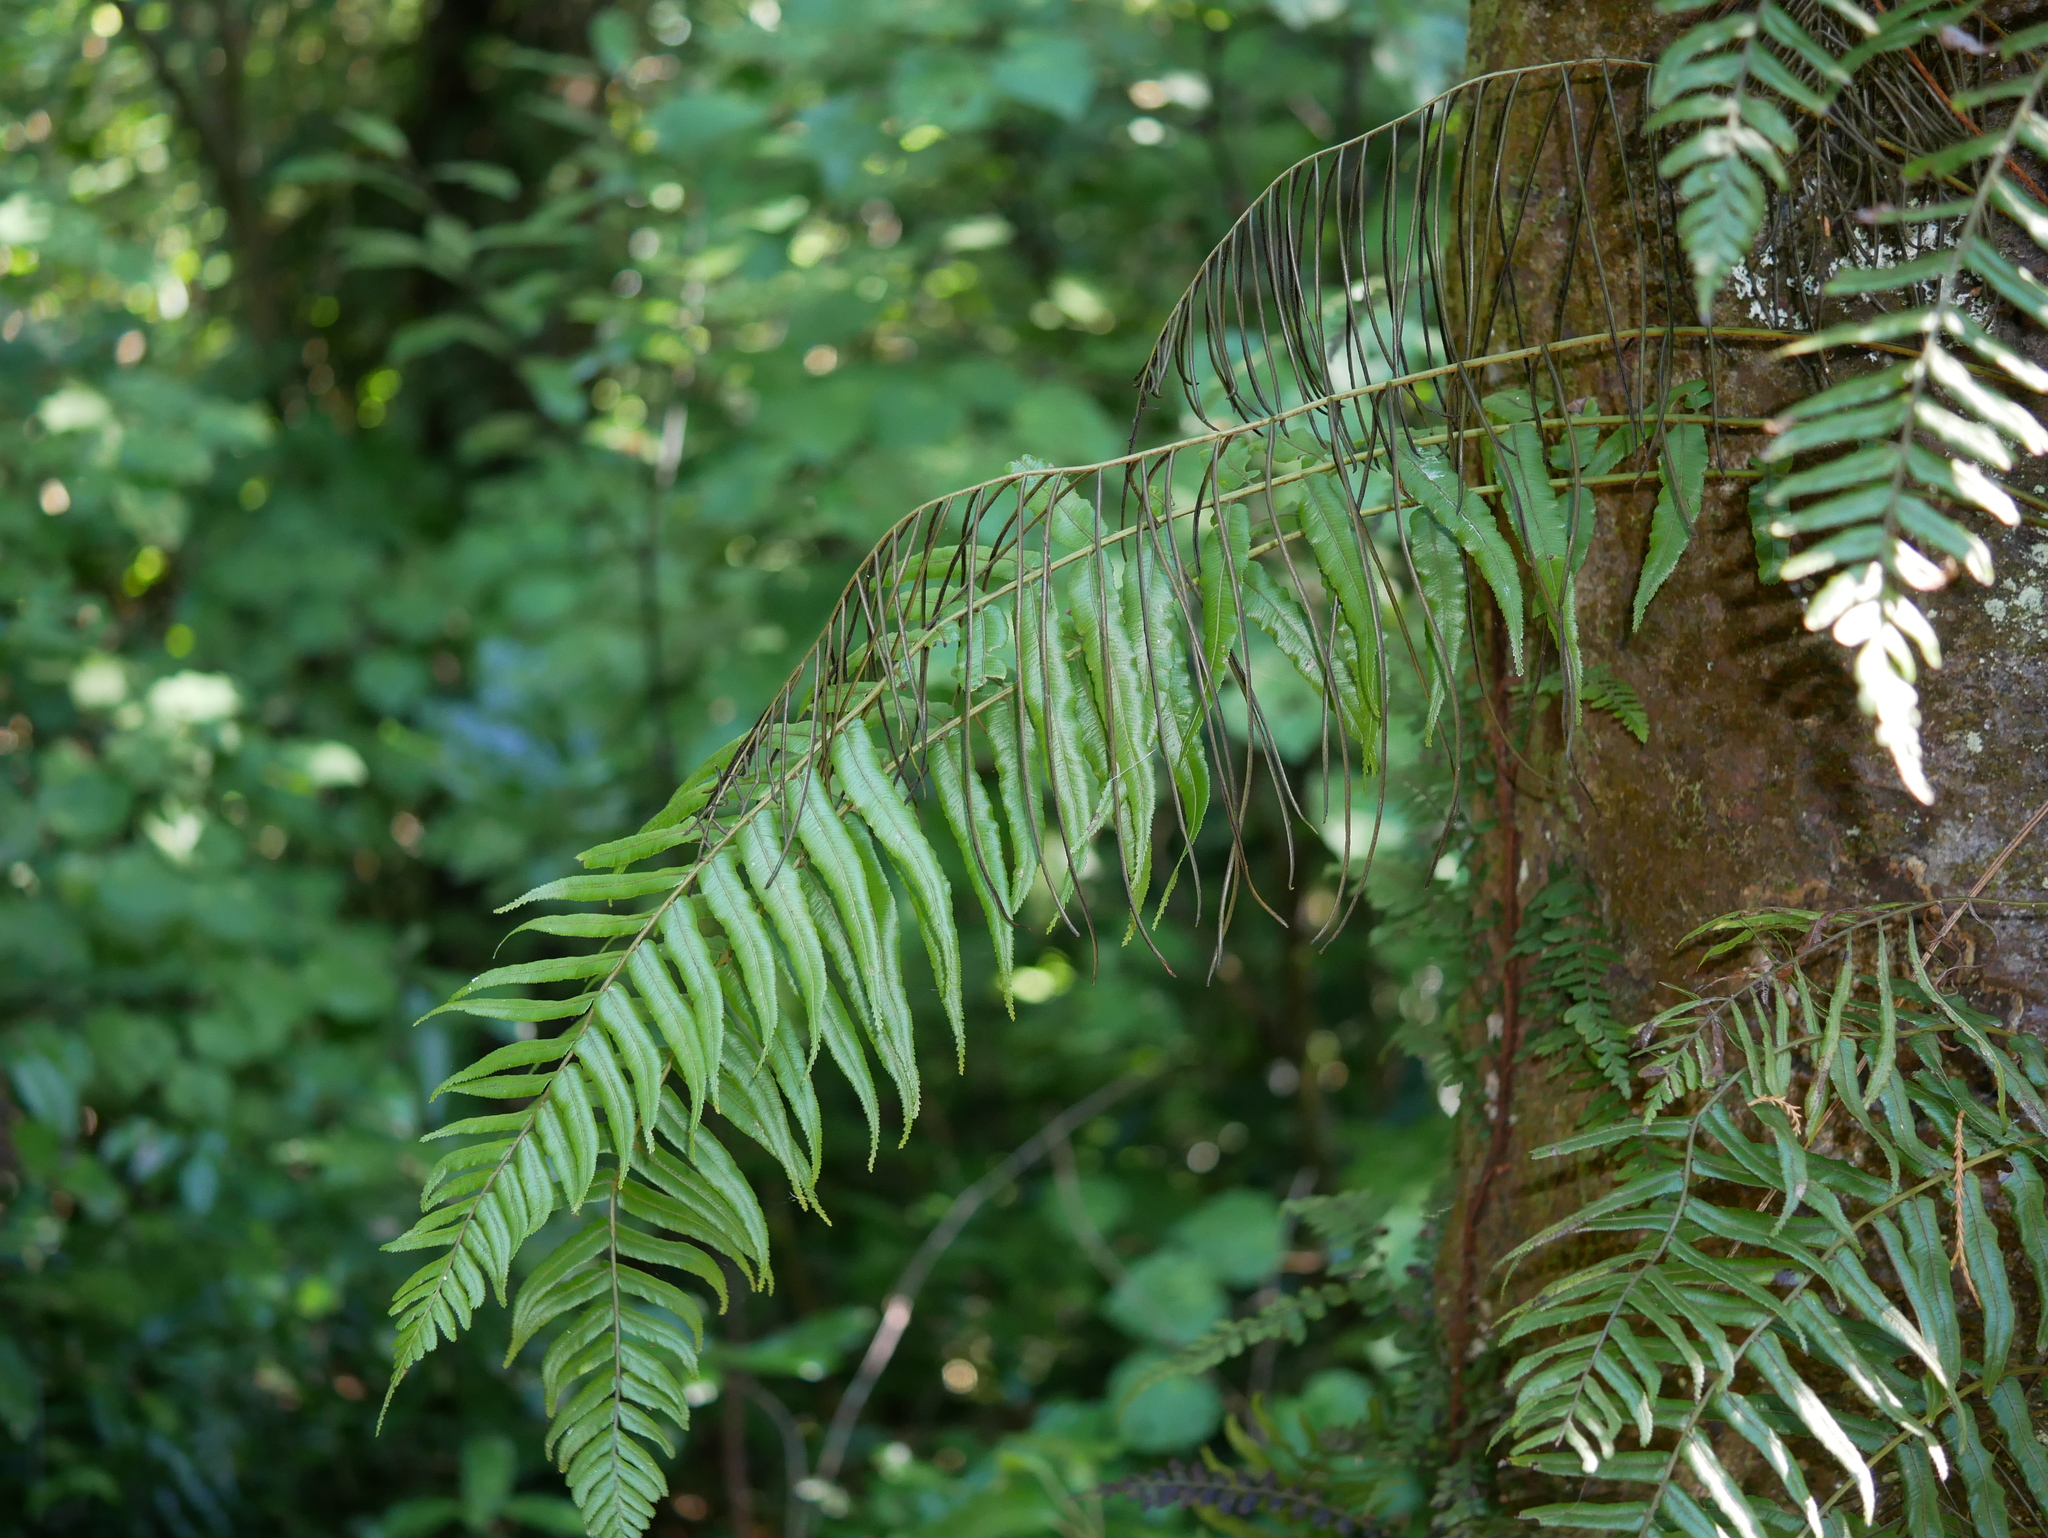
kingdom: Plantae
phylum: Tracheophyta
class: Polypodiopsida
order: Polypodiales
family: Blechnaceae
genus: Icarus
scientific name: Icarus filiformis
